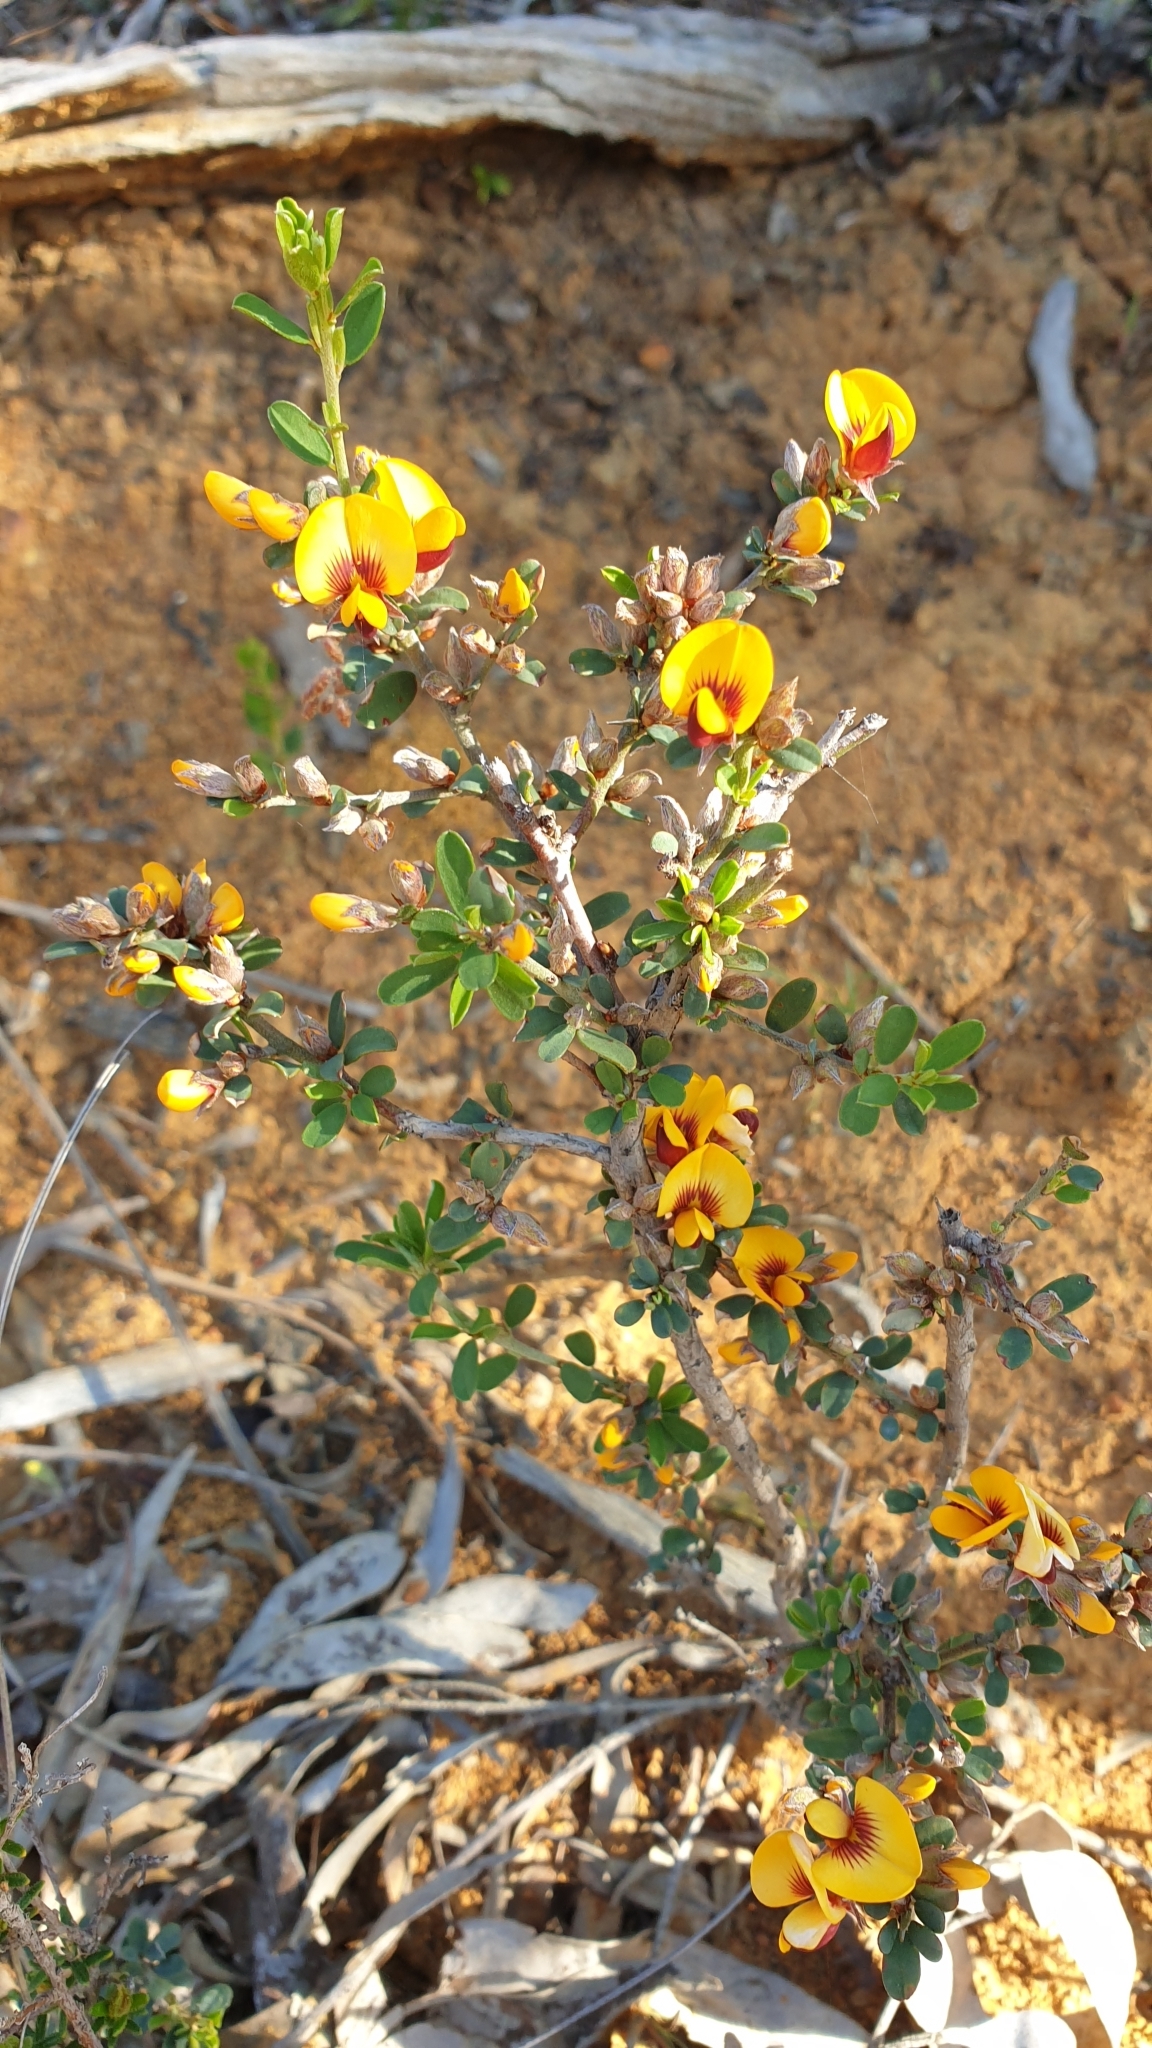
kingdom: Plantae
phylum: Tracheophyta
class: Magnoliopsida
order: Fabales
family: Fabaceae
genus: Pultenaea
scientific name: Pultenaea largiflorens
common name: Twiggy bush-pea
